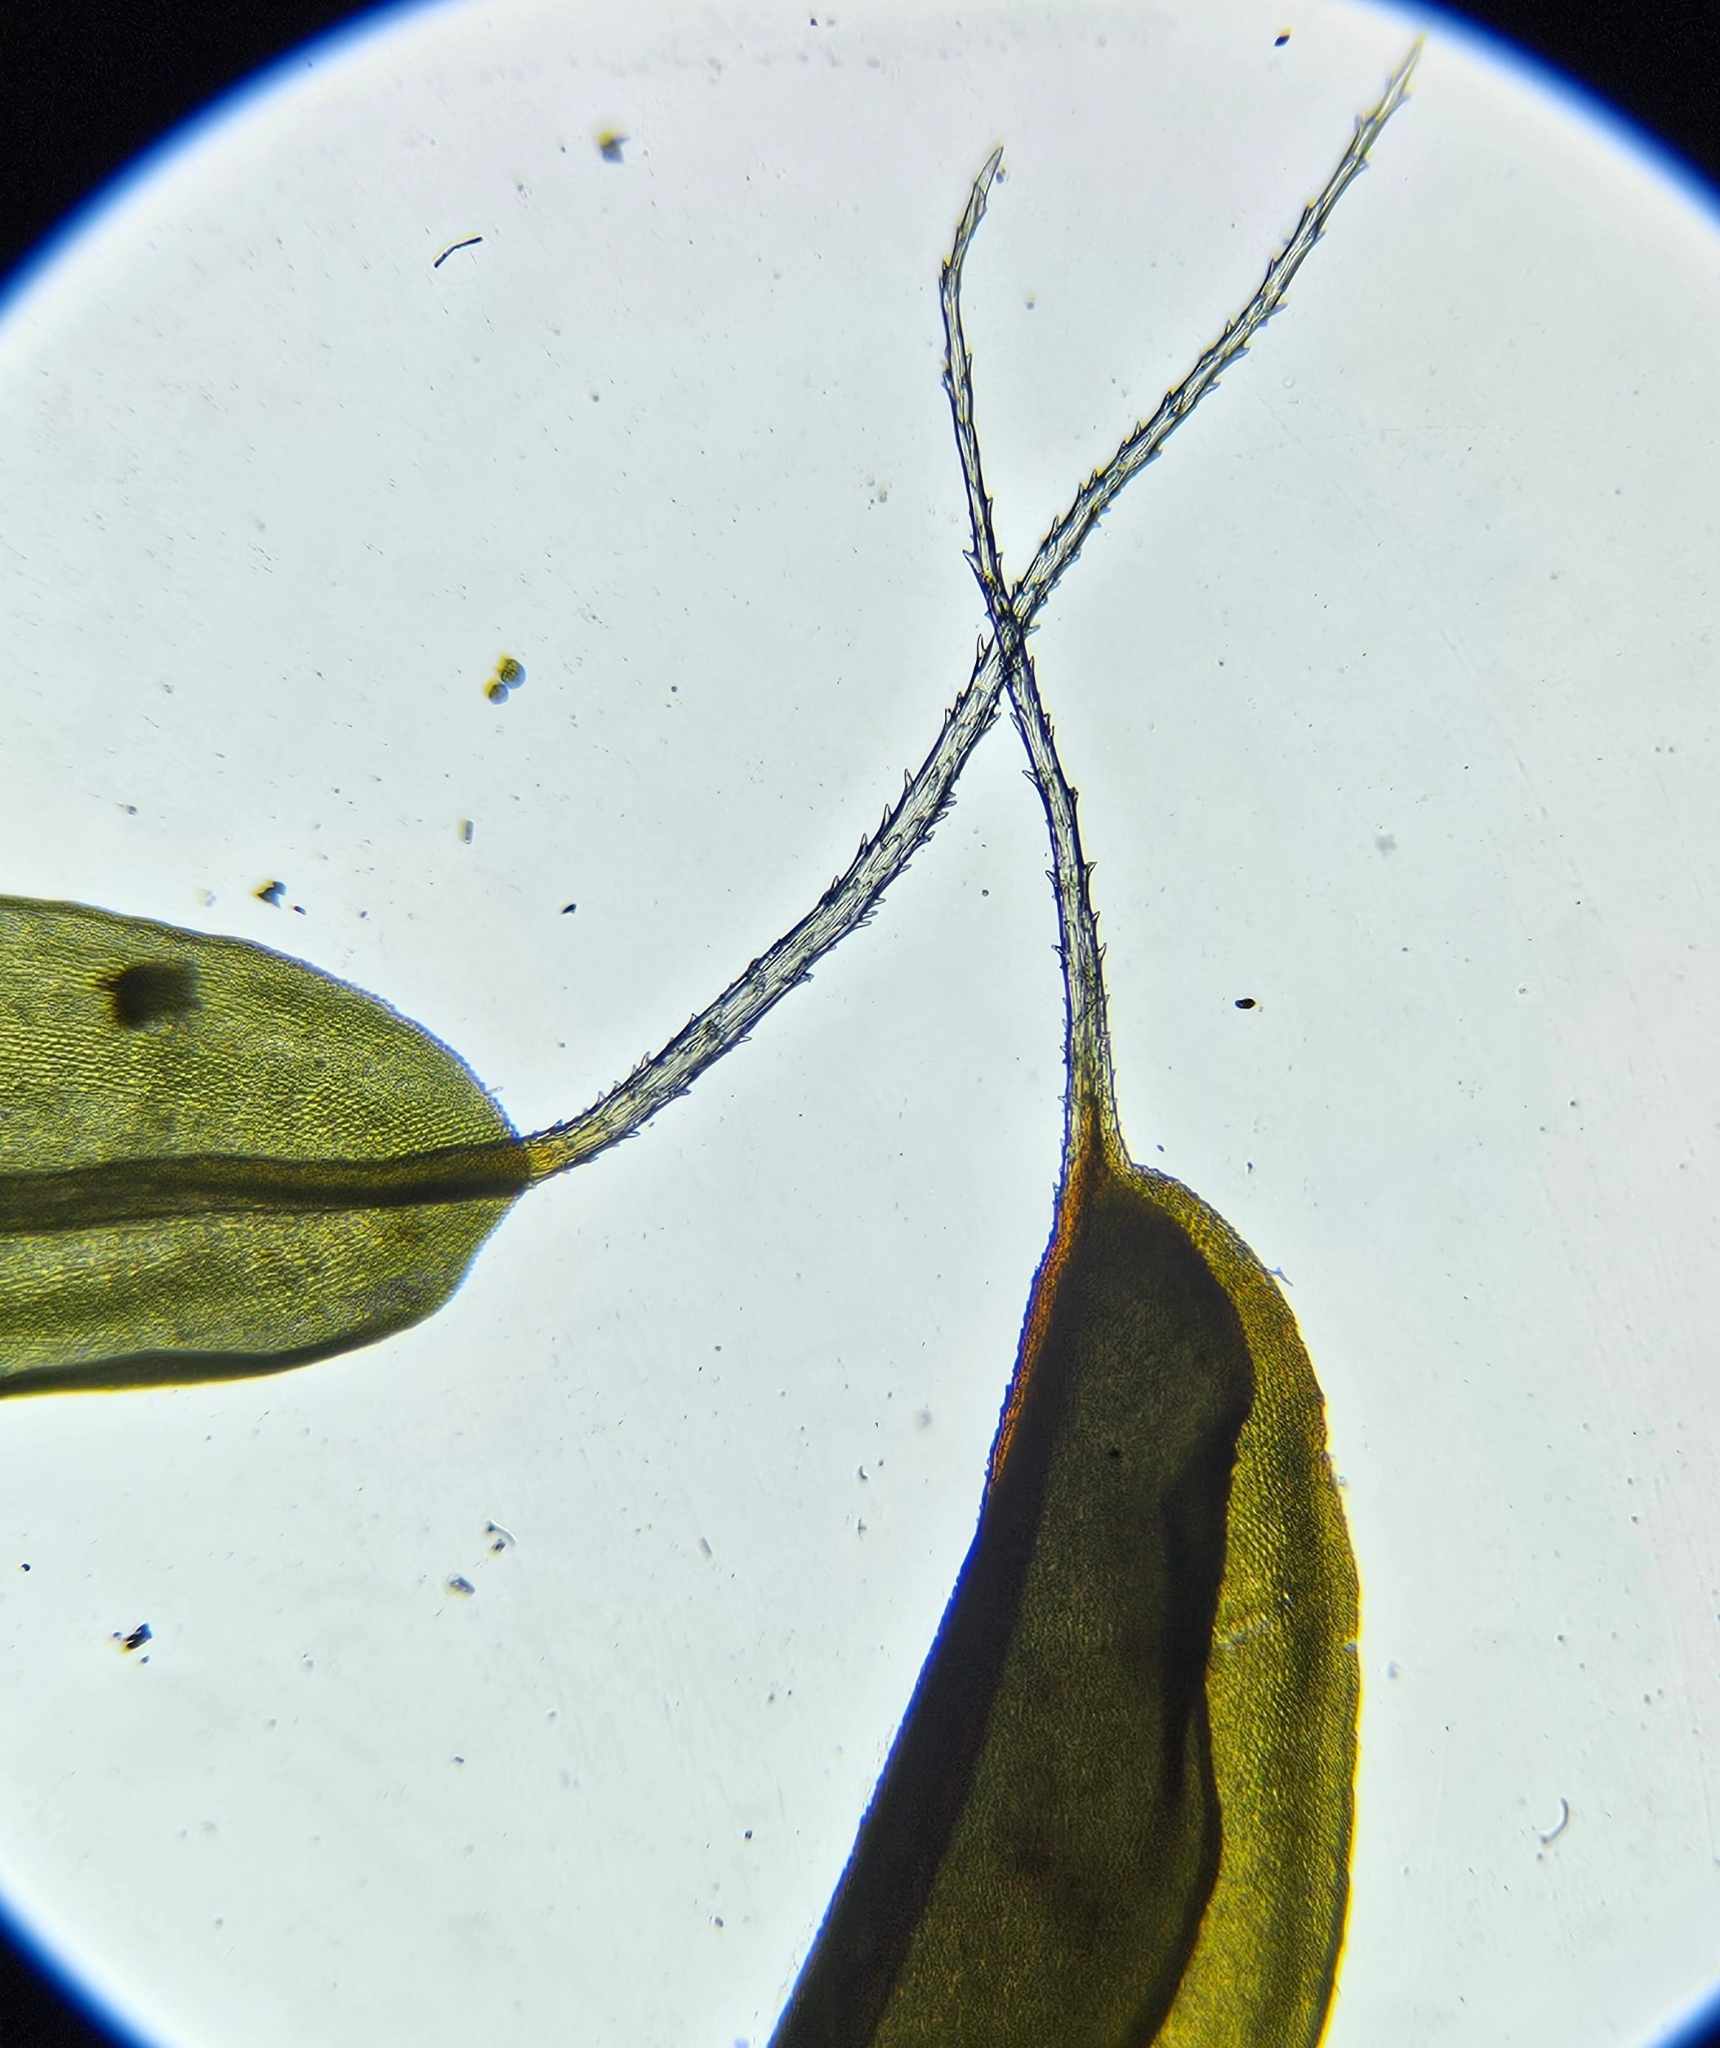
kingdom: Plantae
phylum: Bryophyta
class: Bryopsida
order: Pottiales
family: Pottiaceae
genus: Syntrichia
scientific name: Syntrichia ruralis
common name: Sidewalk screw moss
